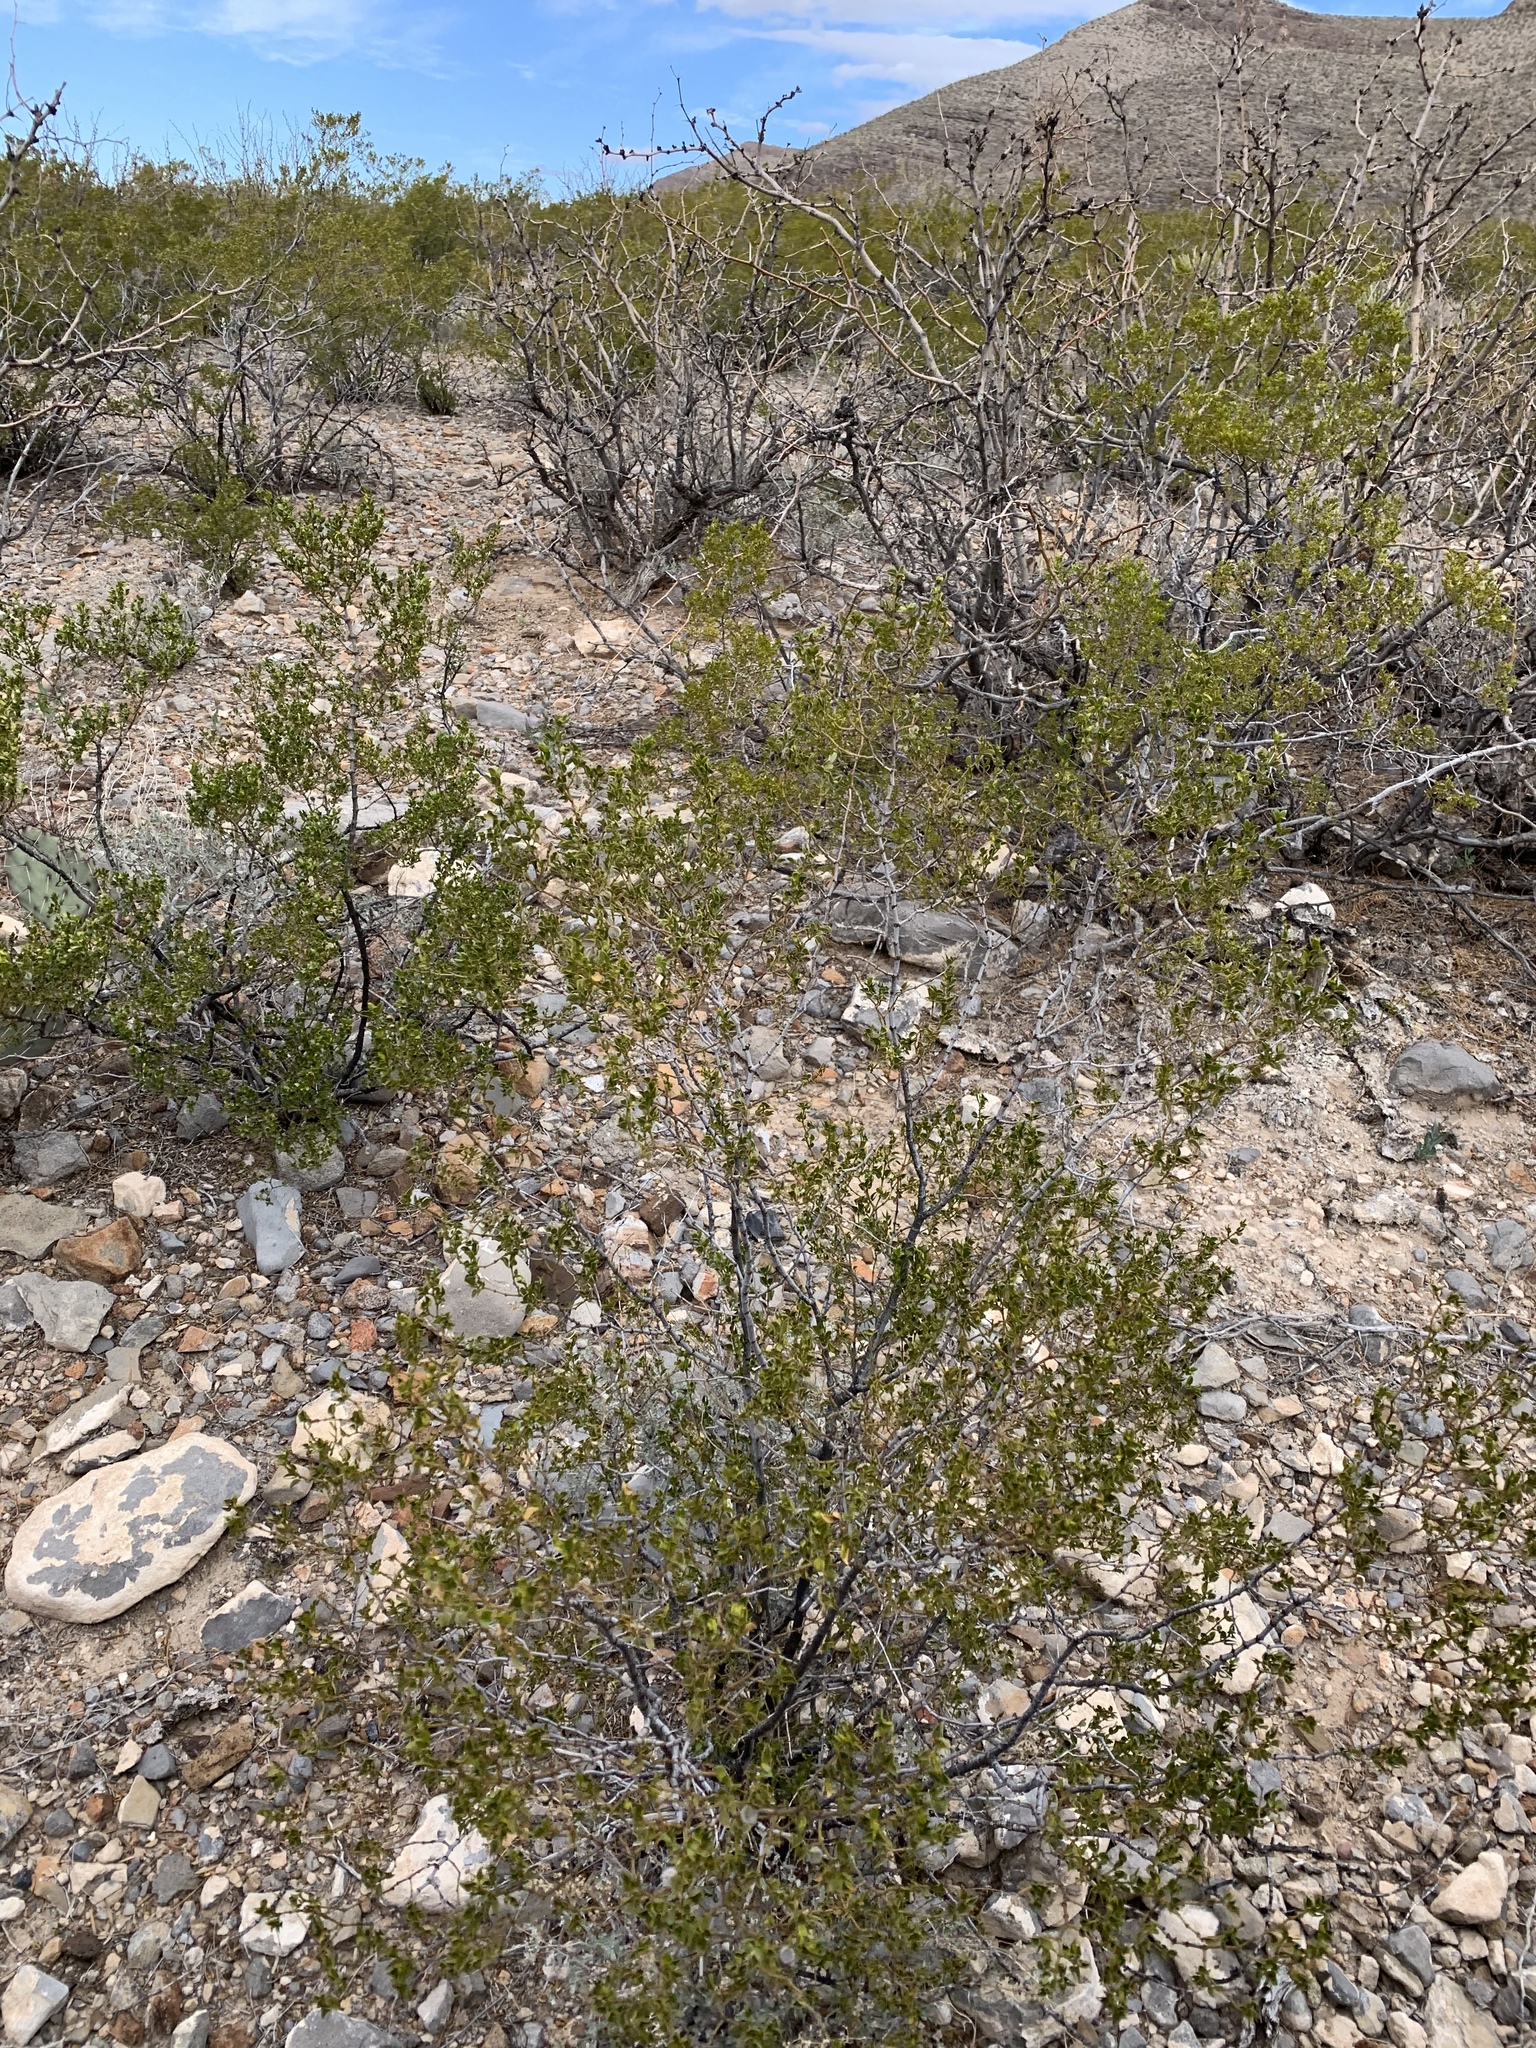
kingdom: Plantae
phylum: Tracheophyta
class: Magnoliopsida
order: Zygophyllales
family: Zygophyllaceae
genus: Larrea
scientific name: Larrea tridentata
